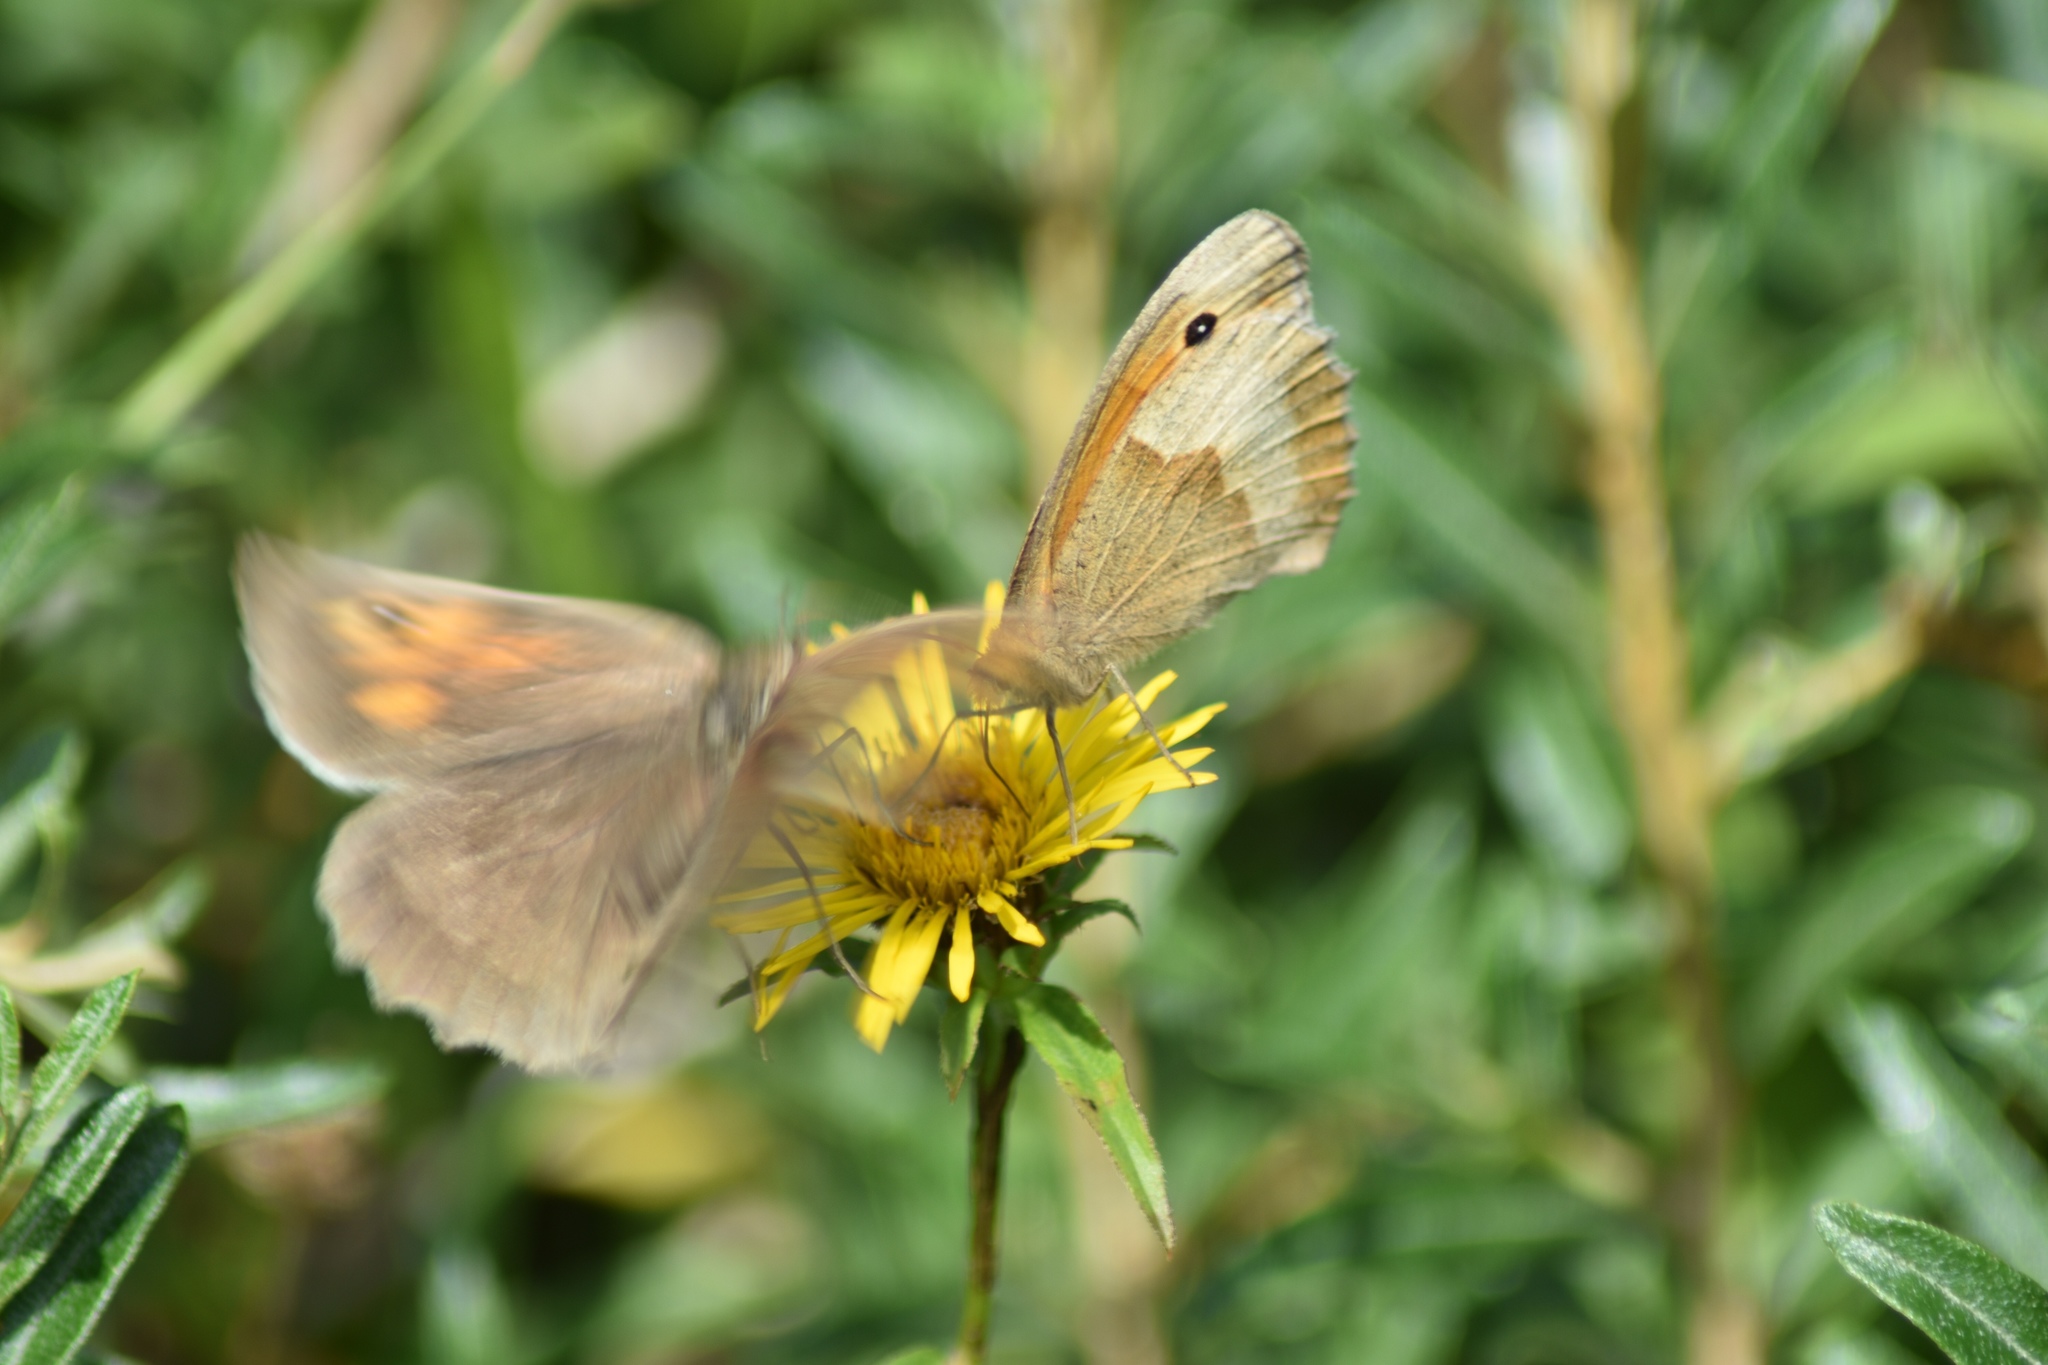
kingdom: Animalia
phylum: Arthropoda
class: Insecta
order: Lepidoptera
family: Nymphalidae
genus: Maniola
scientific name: Maniola jurtina
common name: Meadow brown
